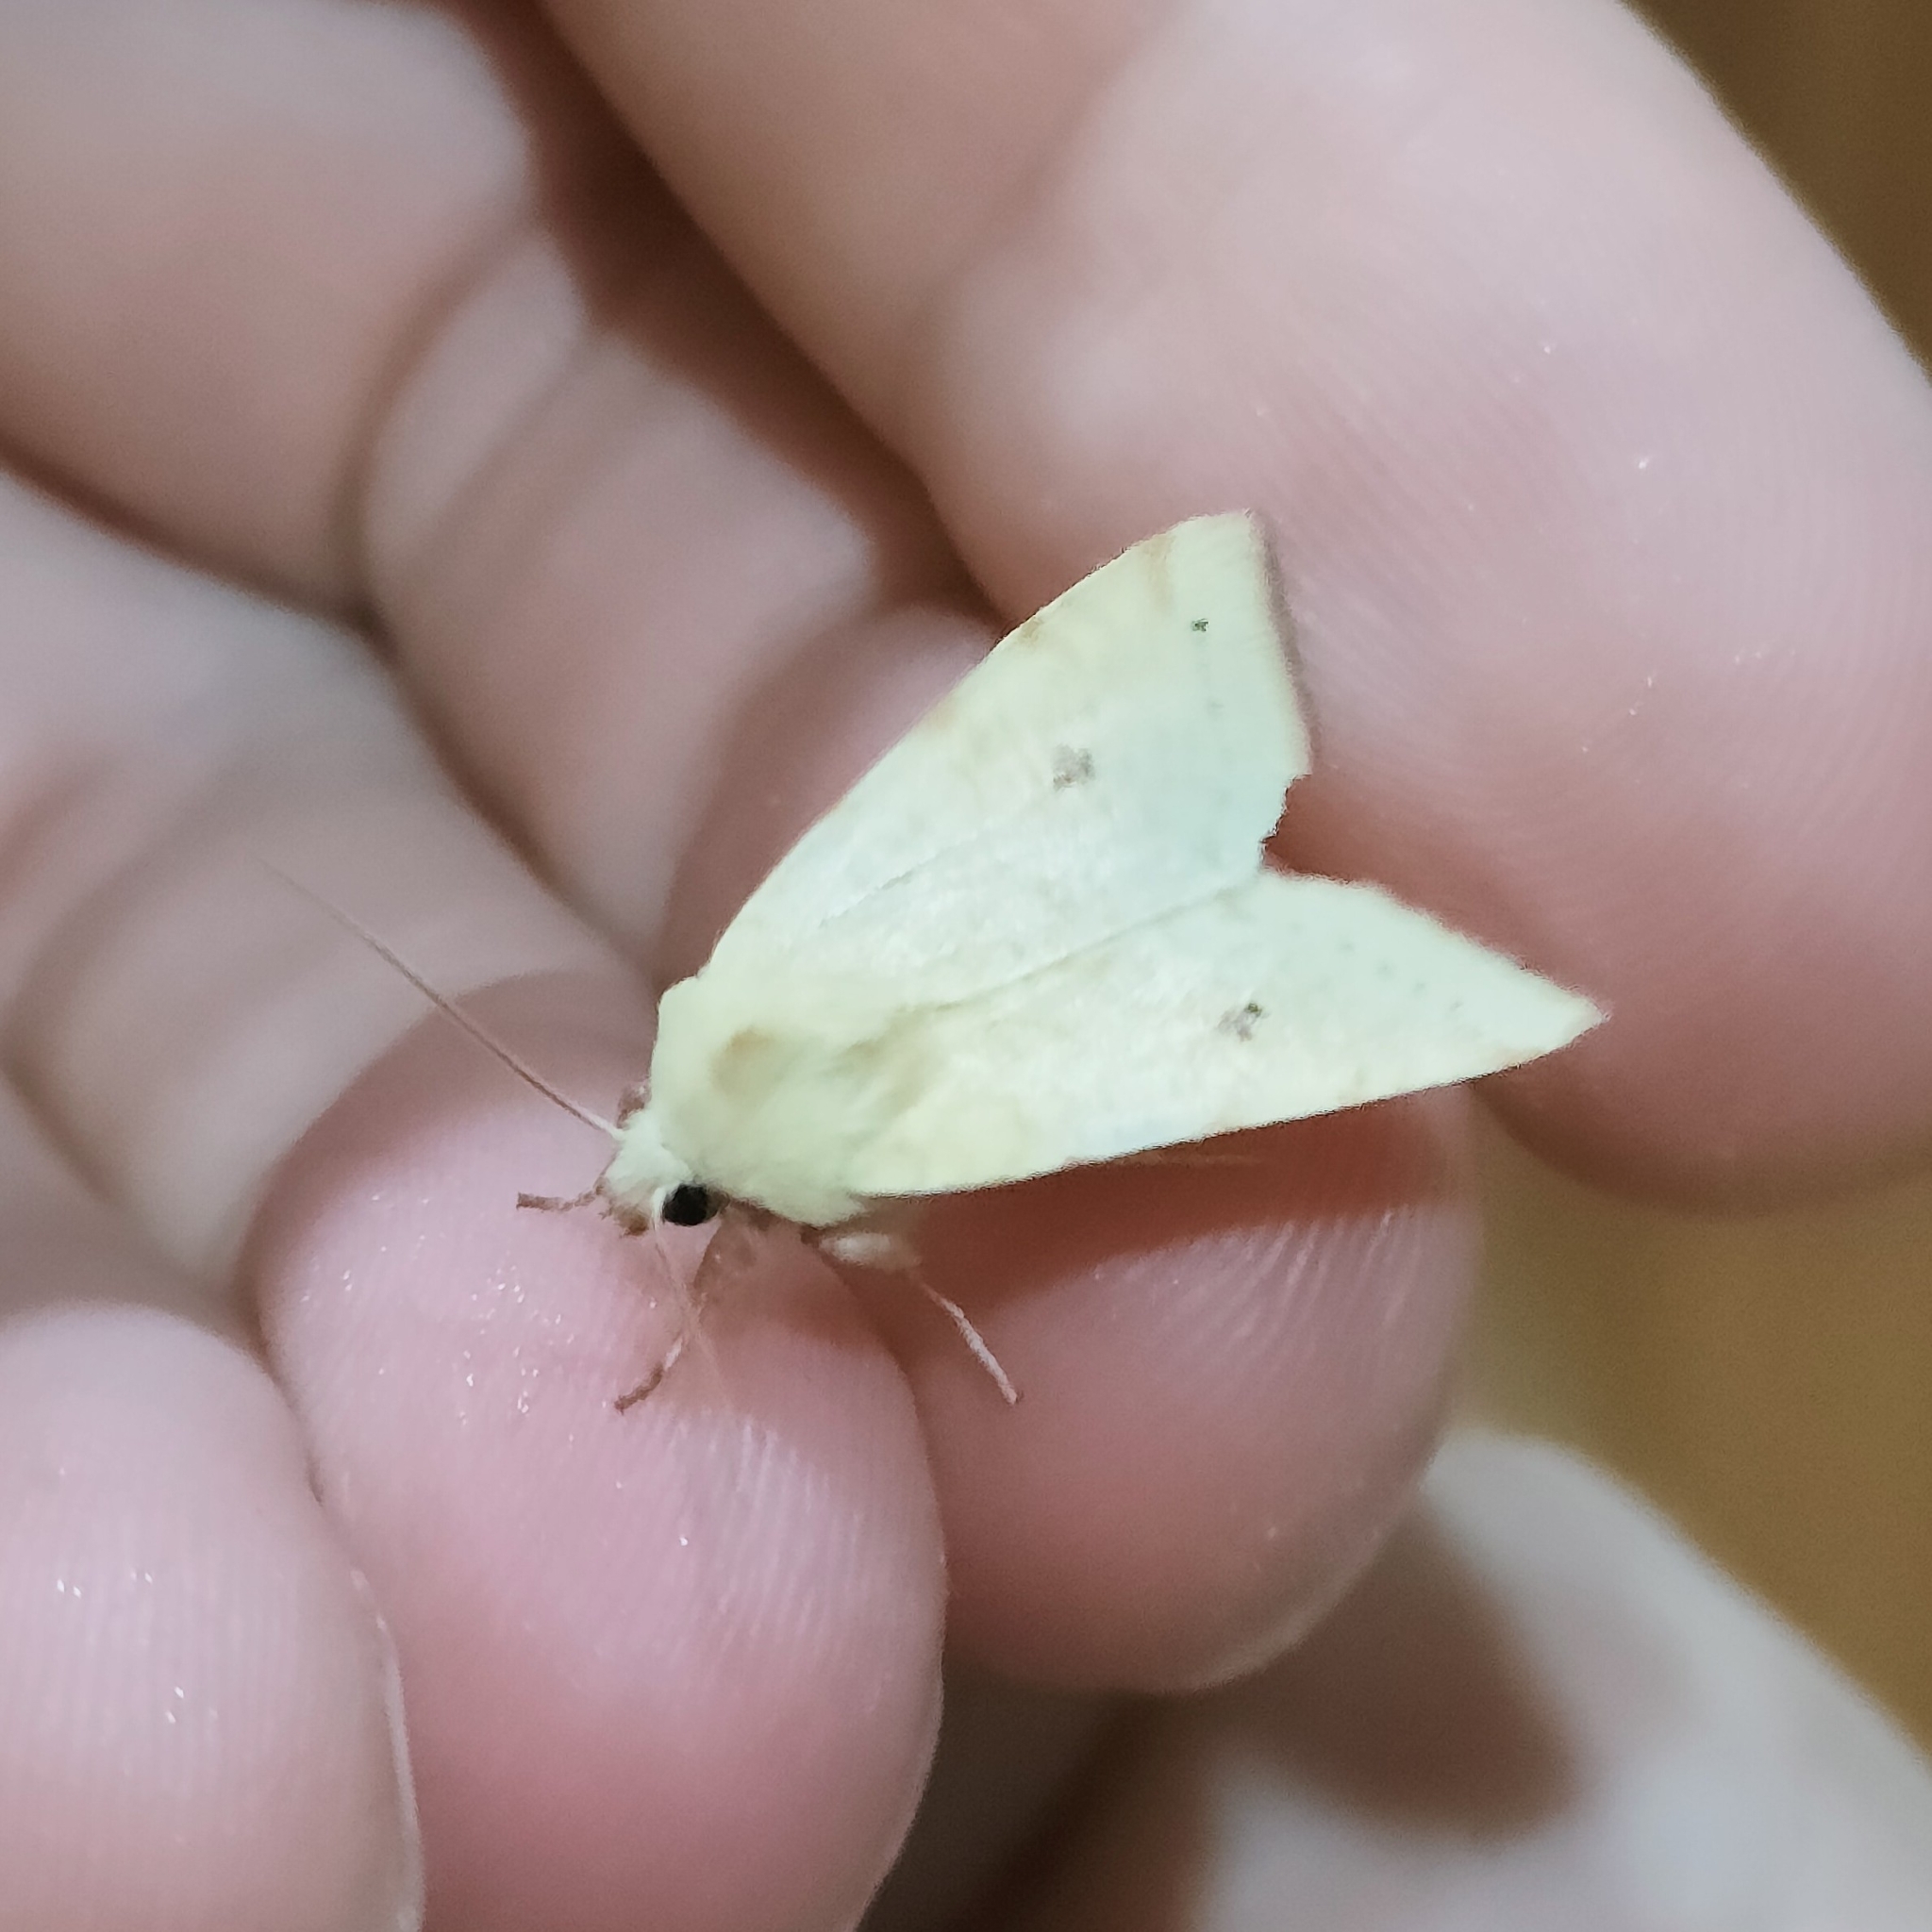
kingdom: Animalia
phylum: Arthropoda
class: Insecta
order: Lepidoptera
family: Noctuidae
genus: Xanthia
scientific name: Xanthia icteritia
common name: The sallow
